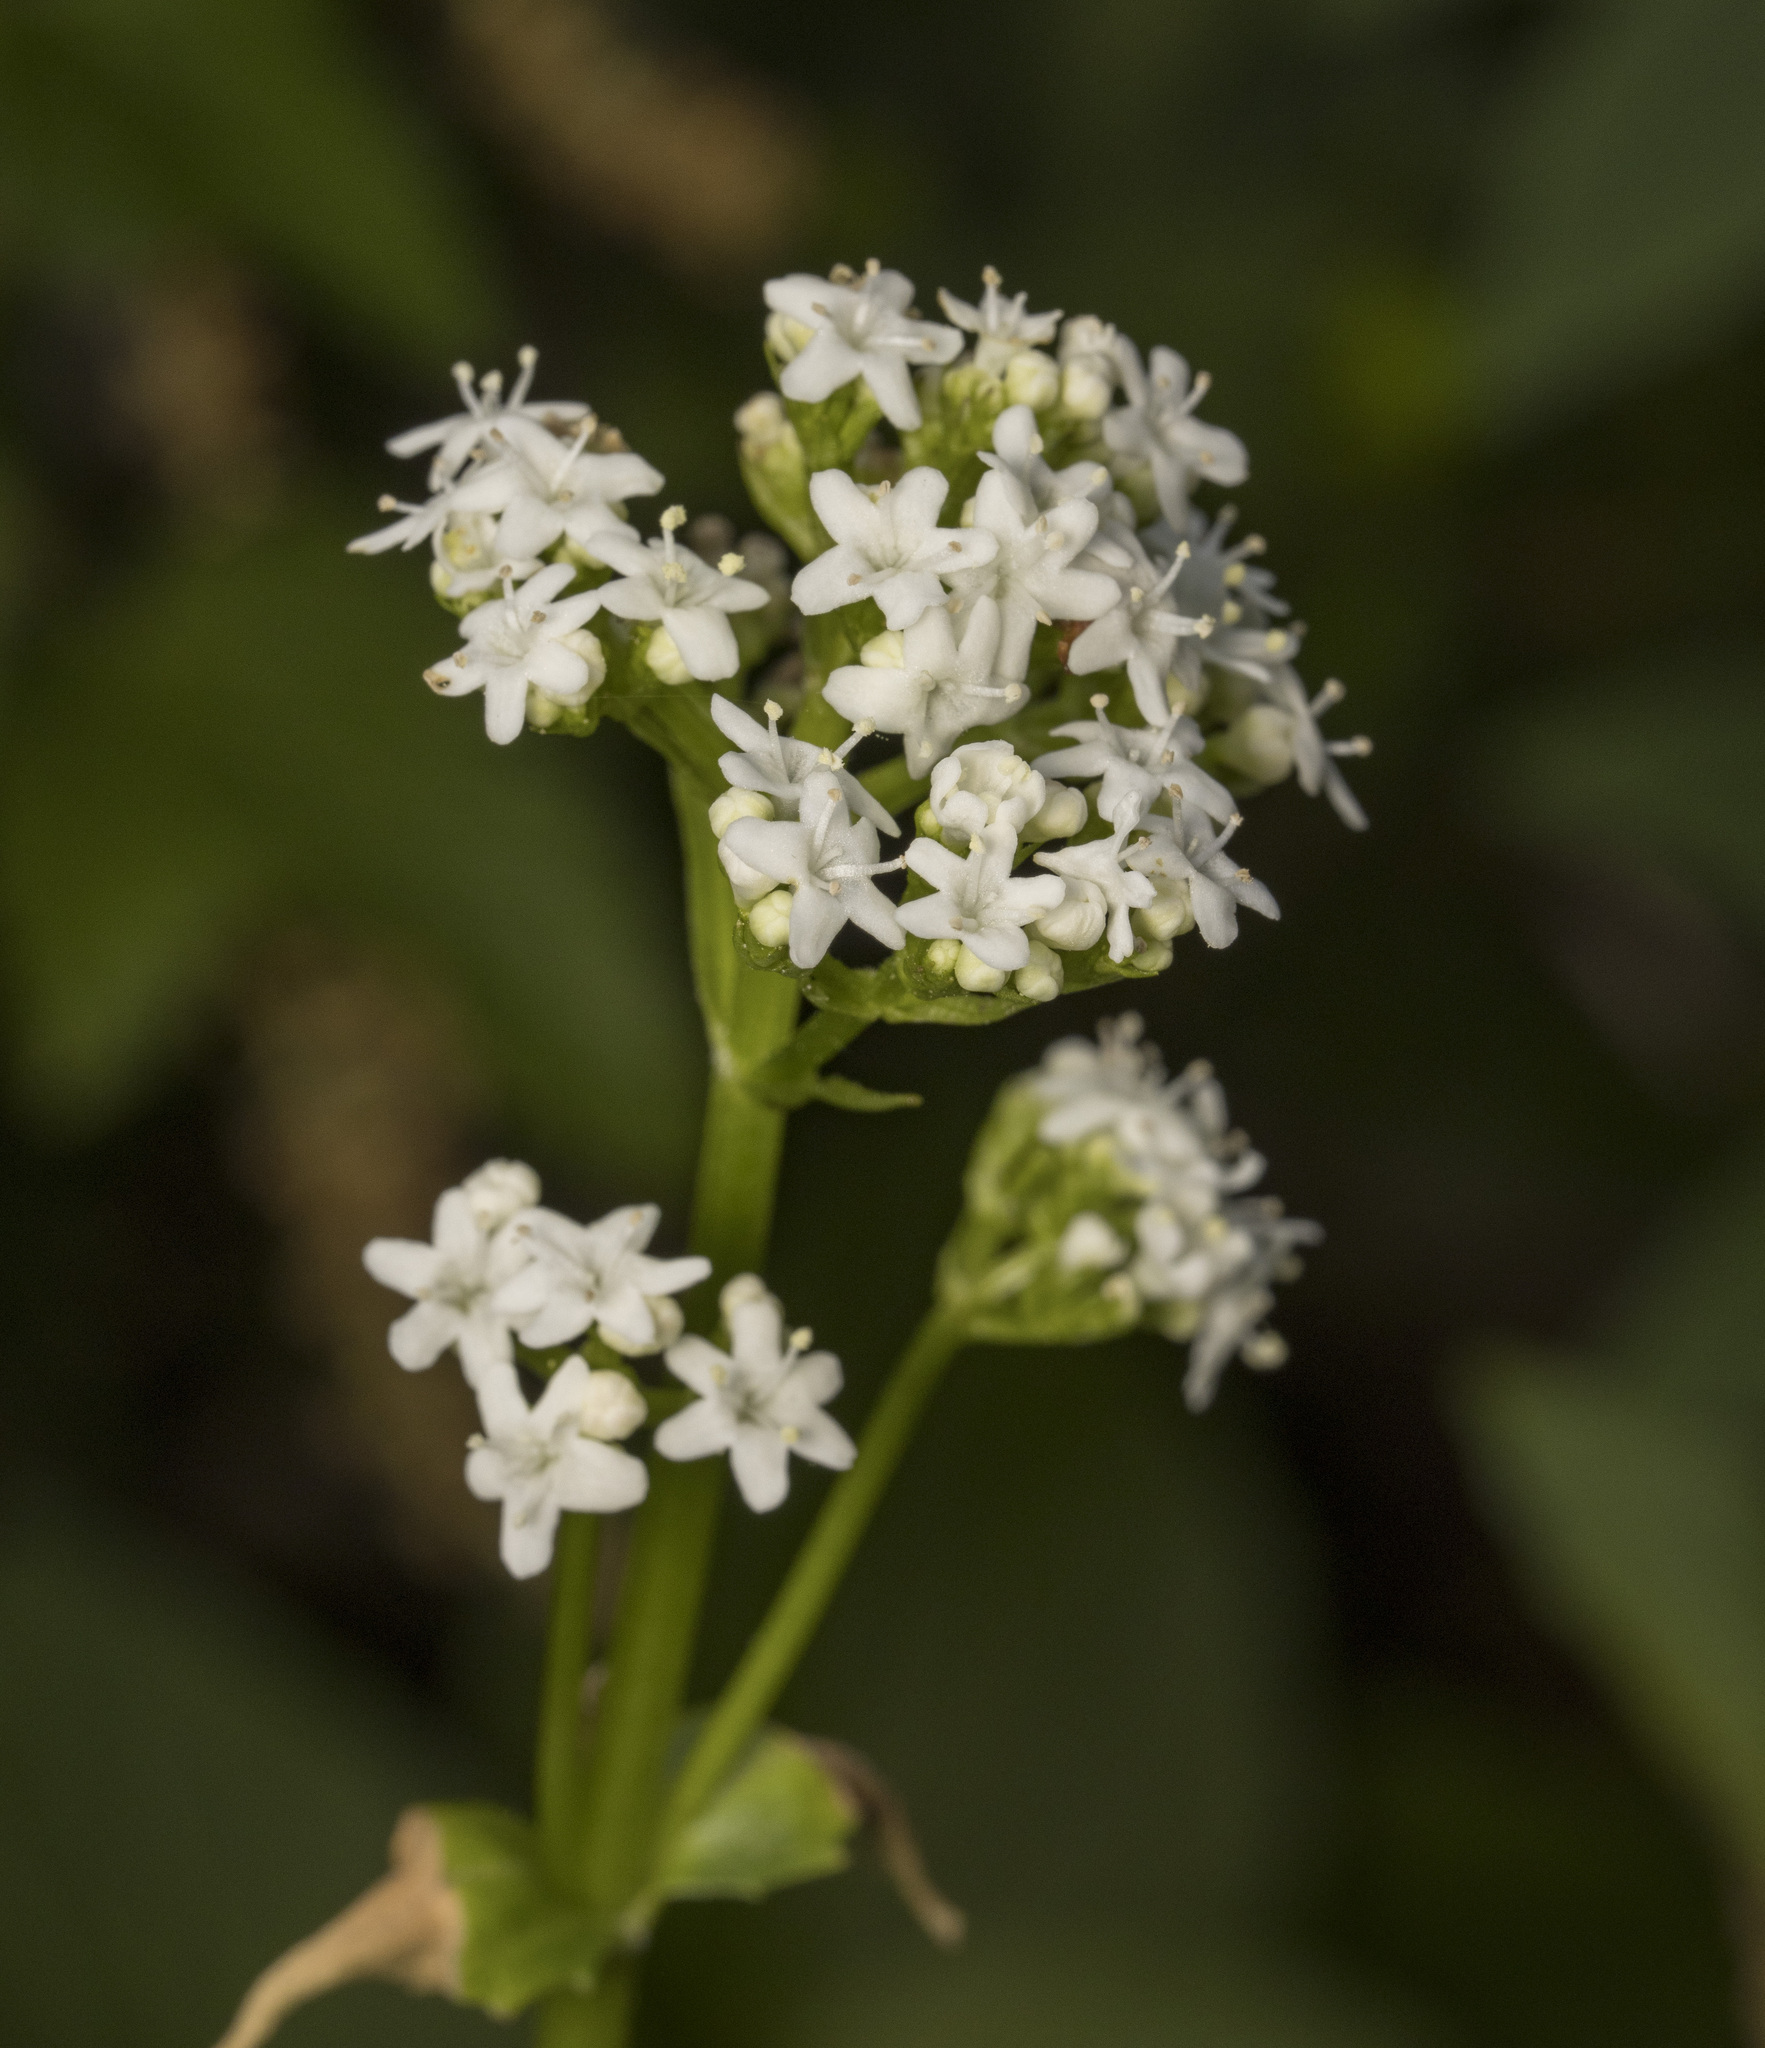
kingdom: Plantae
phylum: Tracheophyta
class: Magnoliopsida
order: Dipsacales
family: Caprifoliaceae
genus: Valeriana
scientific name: Valeriana lapathifolia
